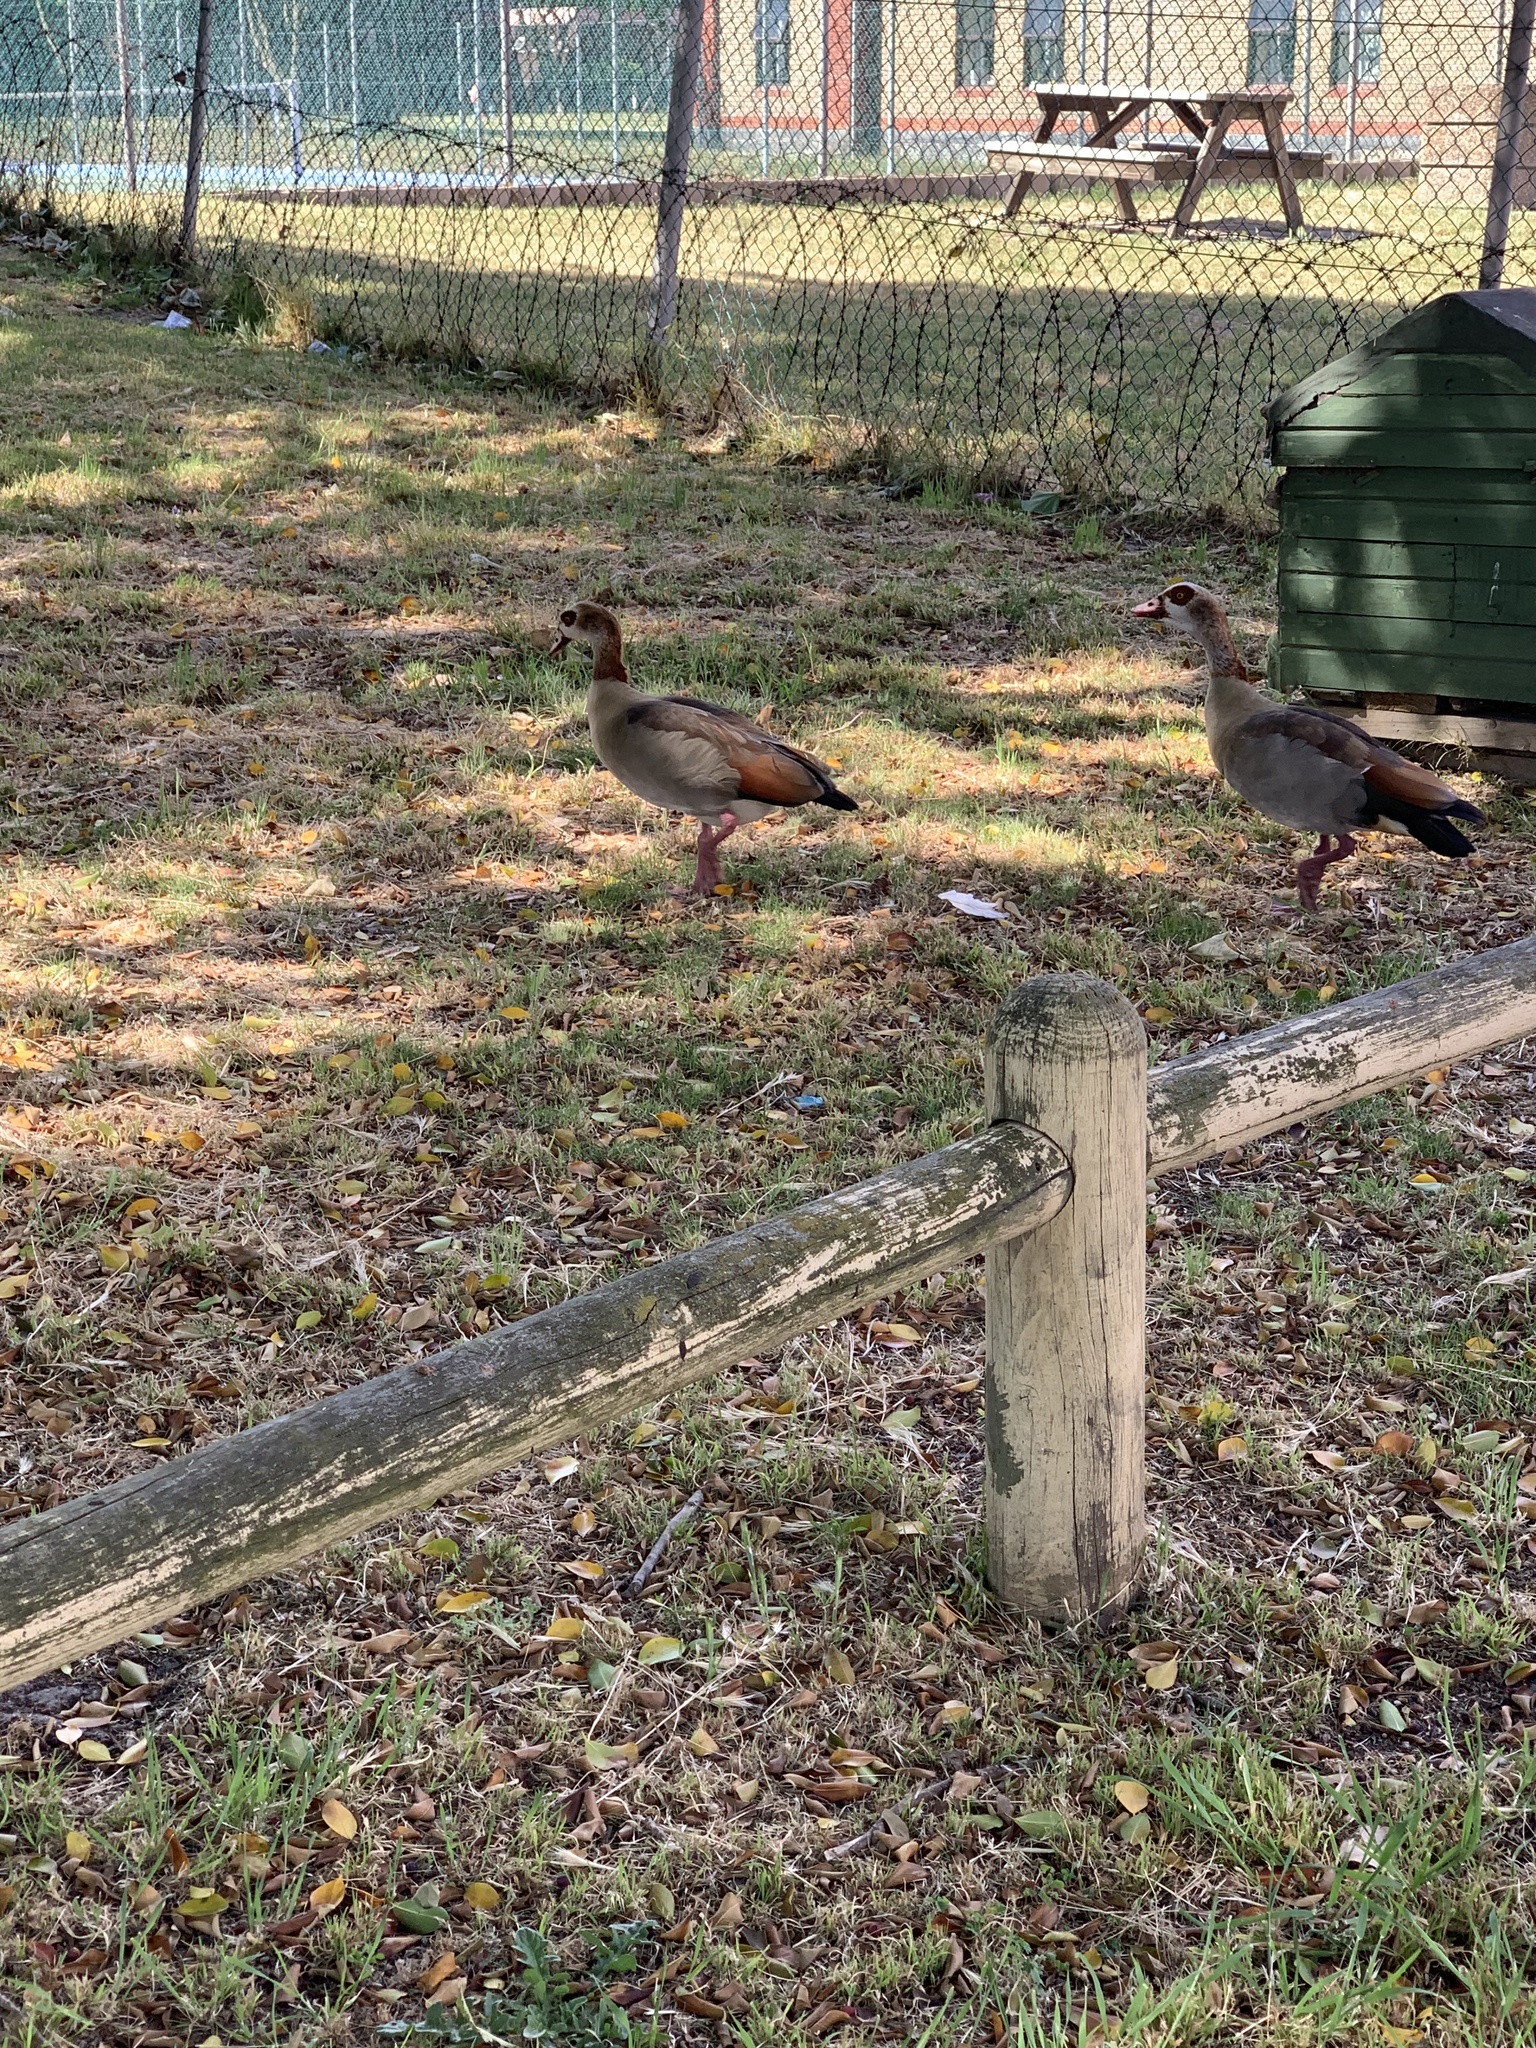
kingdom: Animalia
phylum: Chordata
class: Aves
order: Anseriformes
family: Anatidae
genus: Alopochen
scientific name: Alopochen aegyptiaca
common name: Egyptian goose
